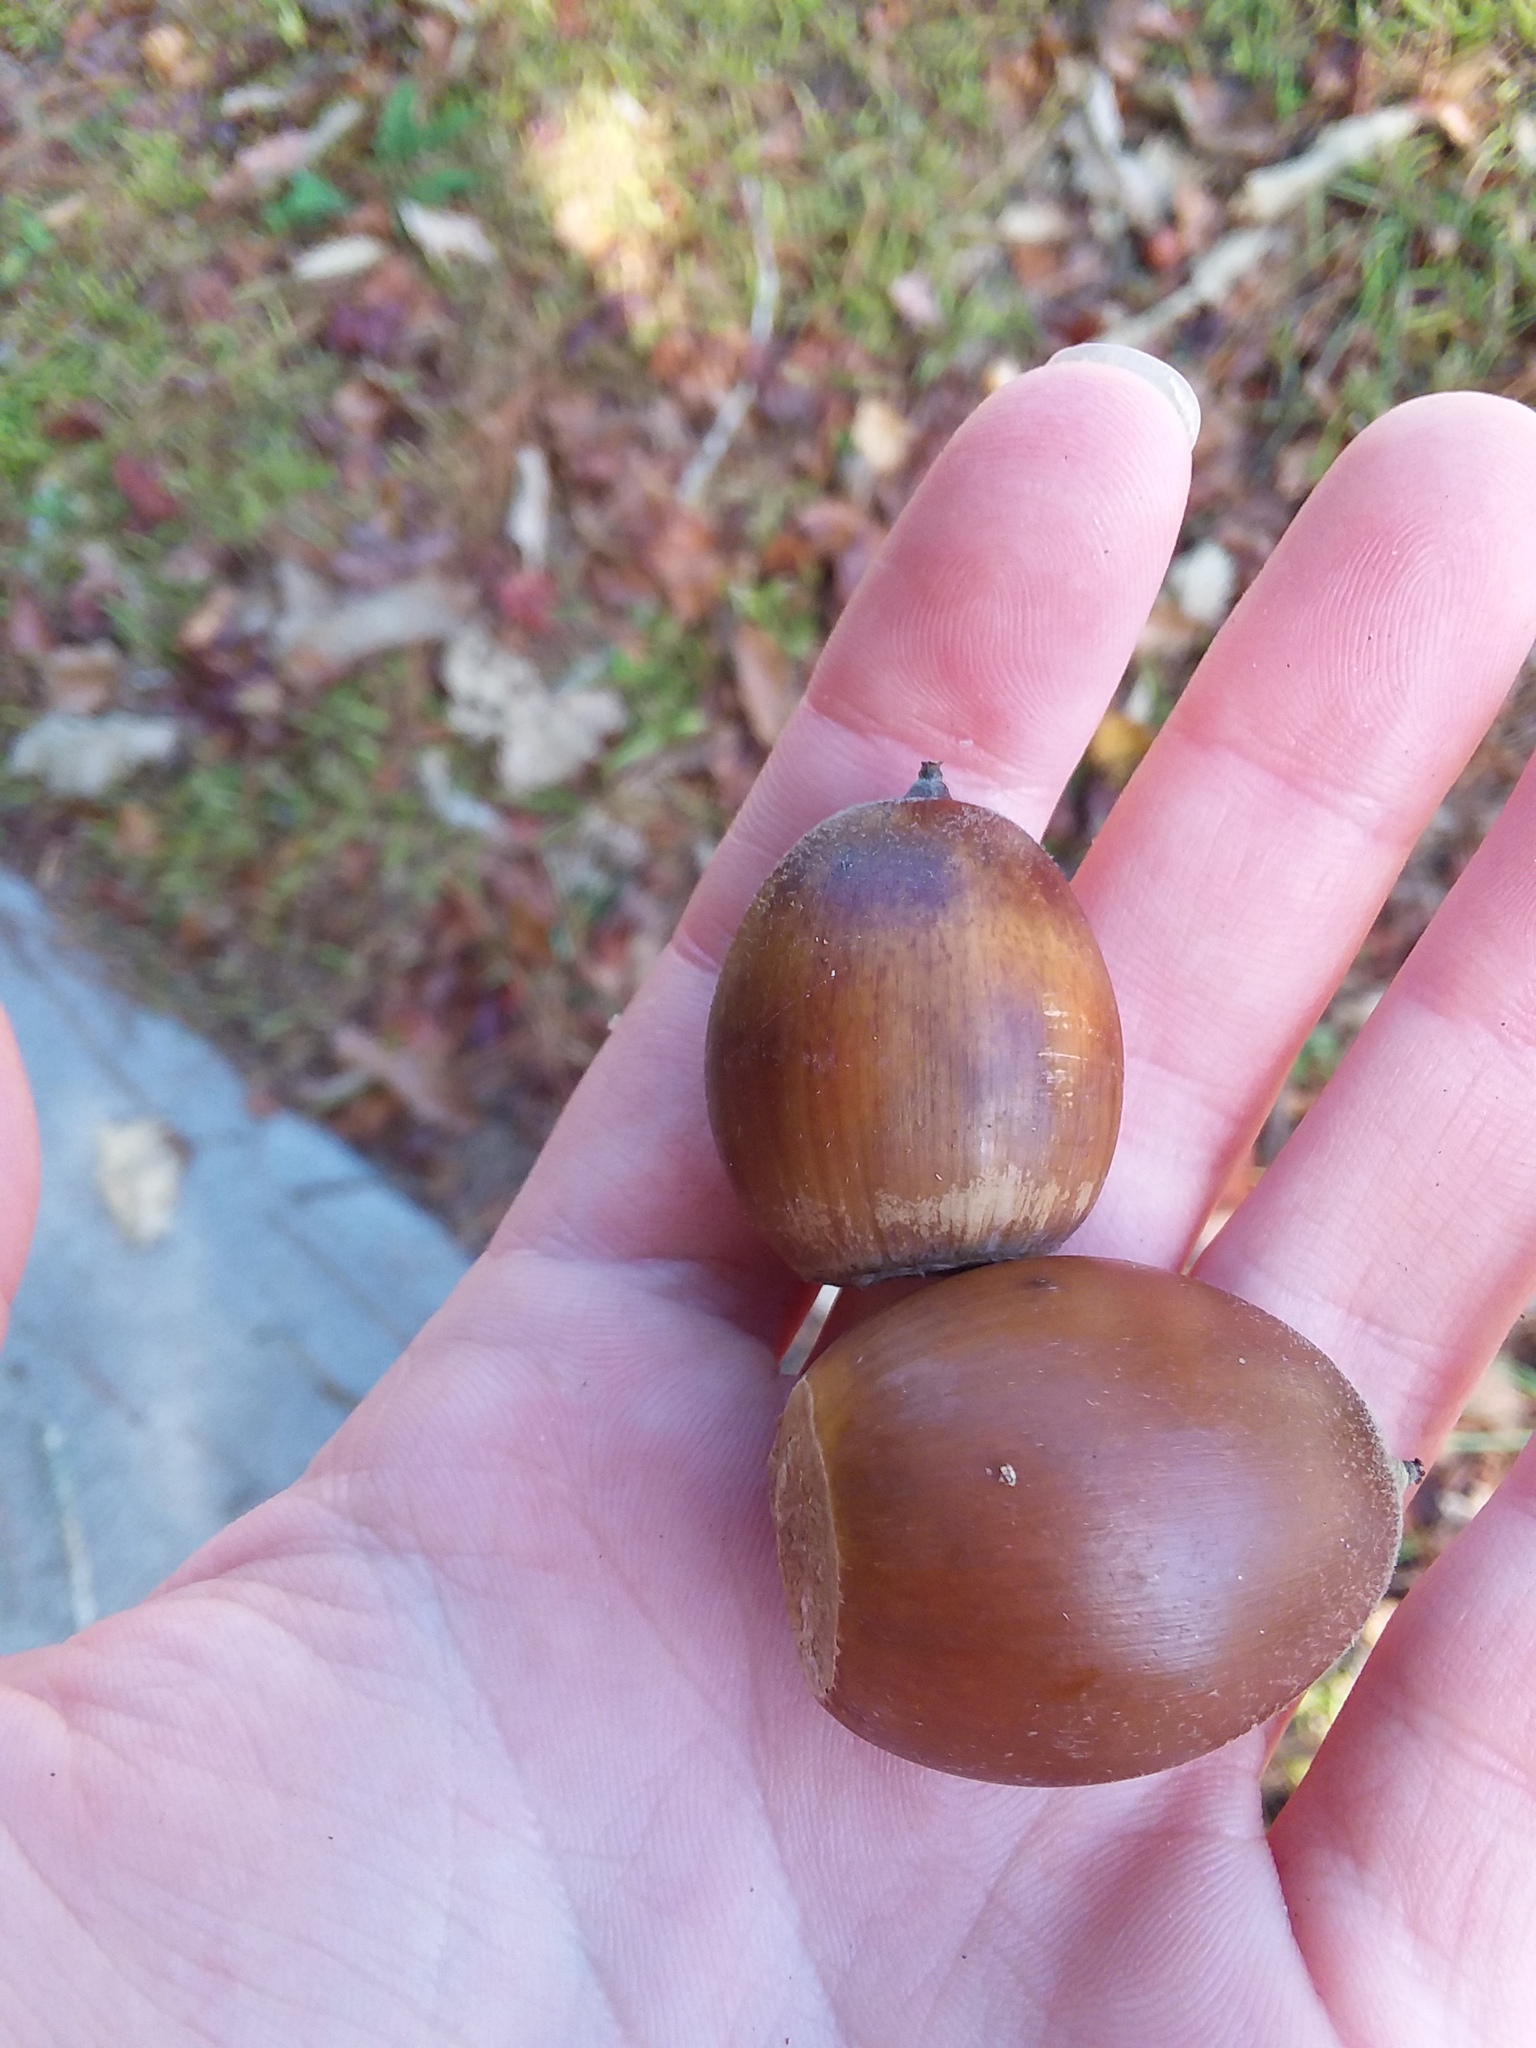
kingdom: Plantae
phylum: Tracheophyta
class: Magnoliopsida
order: Fagales
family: Fagaceae
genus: Quercus
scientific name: Quercus michauxii
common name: Swamp chestnut oak
